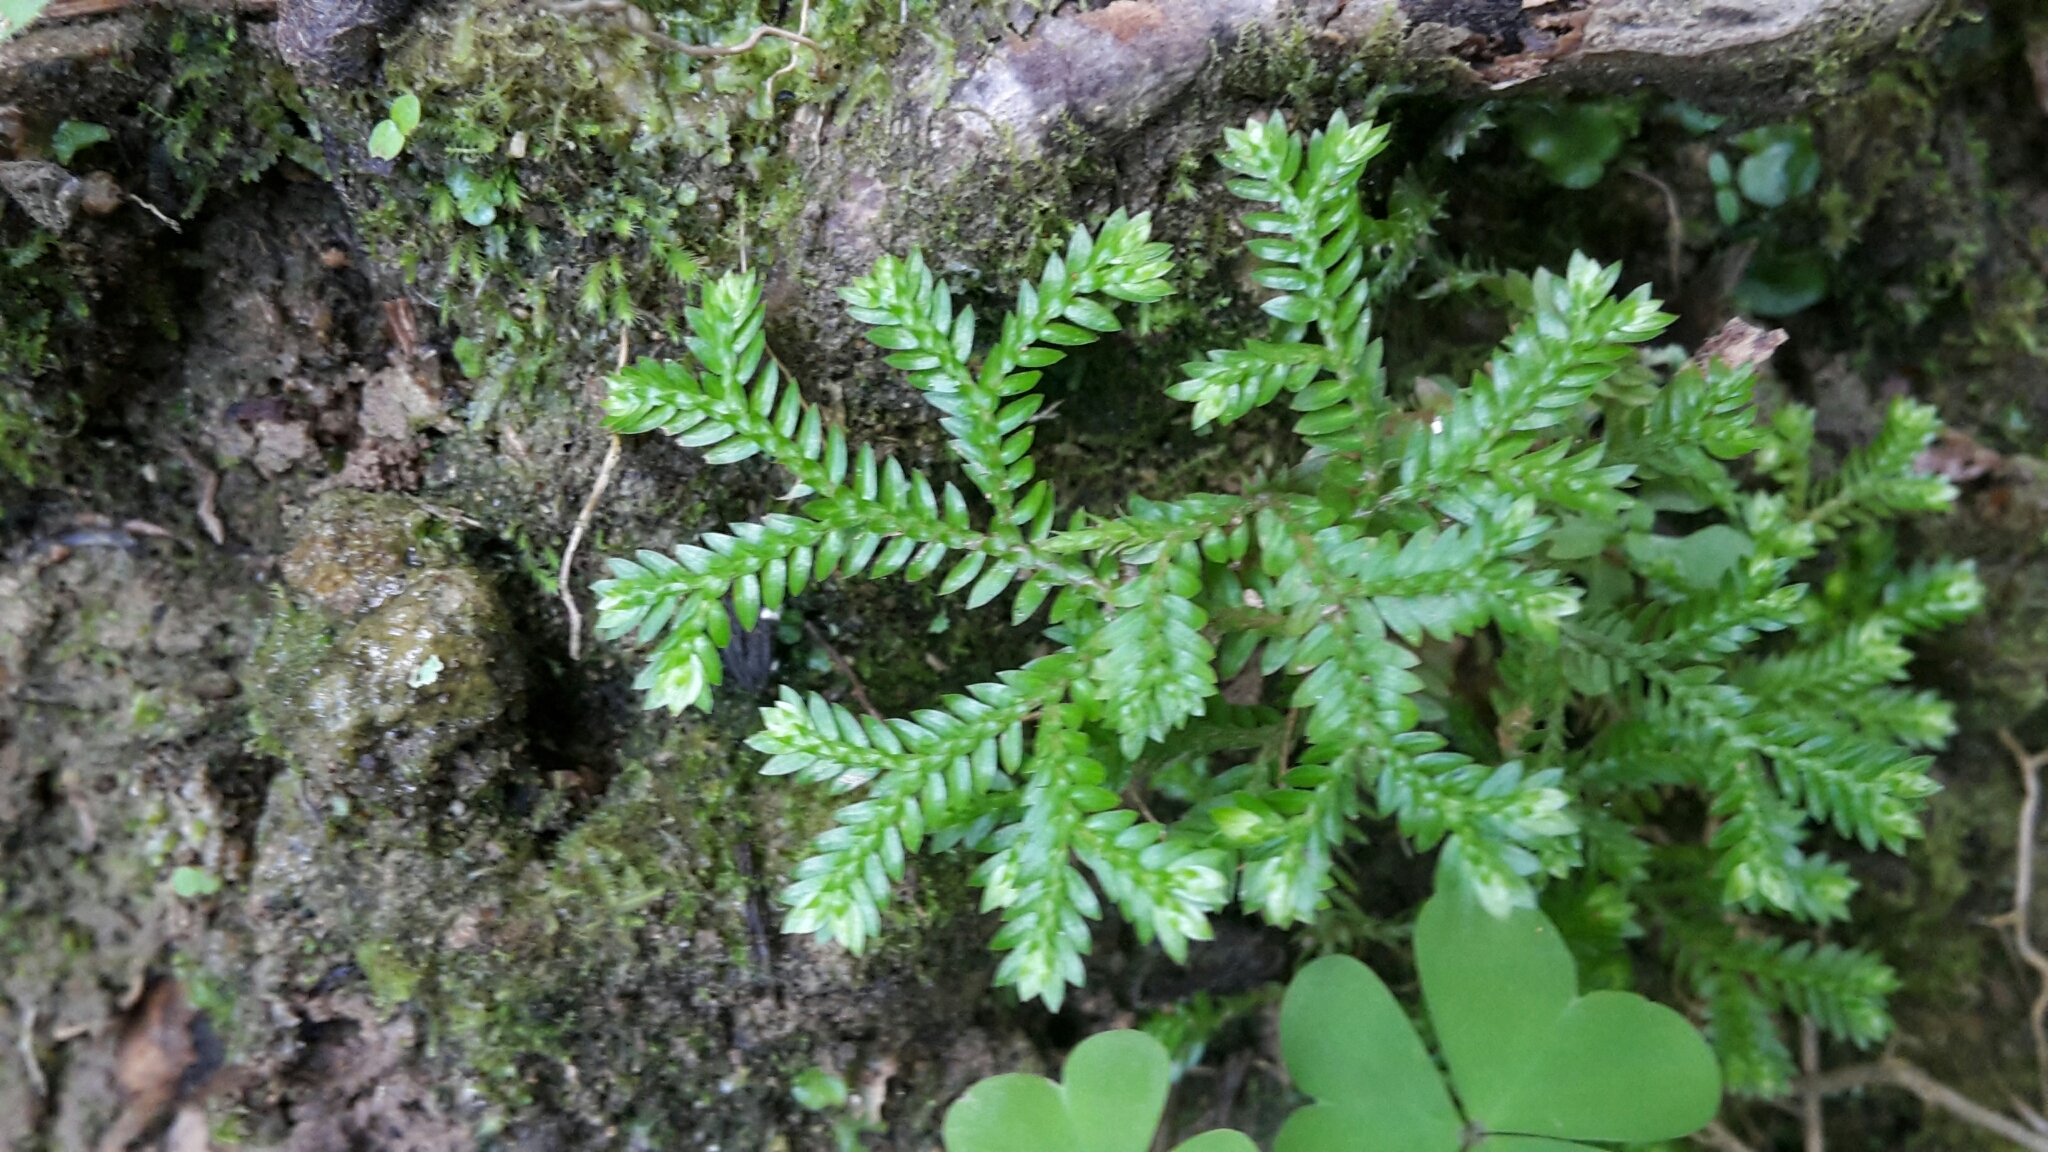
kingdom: Plantae
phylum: Tracheophyta
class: Lycopodiopsida
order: Selaginellales
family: Selaginellaceae
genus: Selaginella
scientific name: Selaginella kraussiana
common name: Krauss' spikemoss
